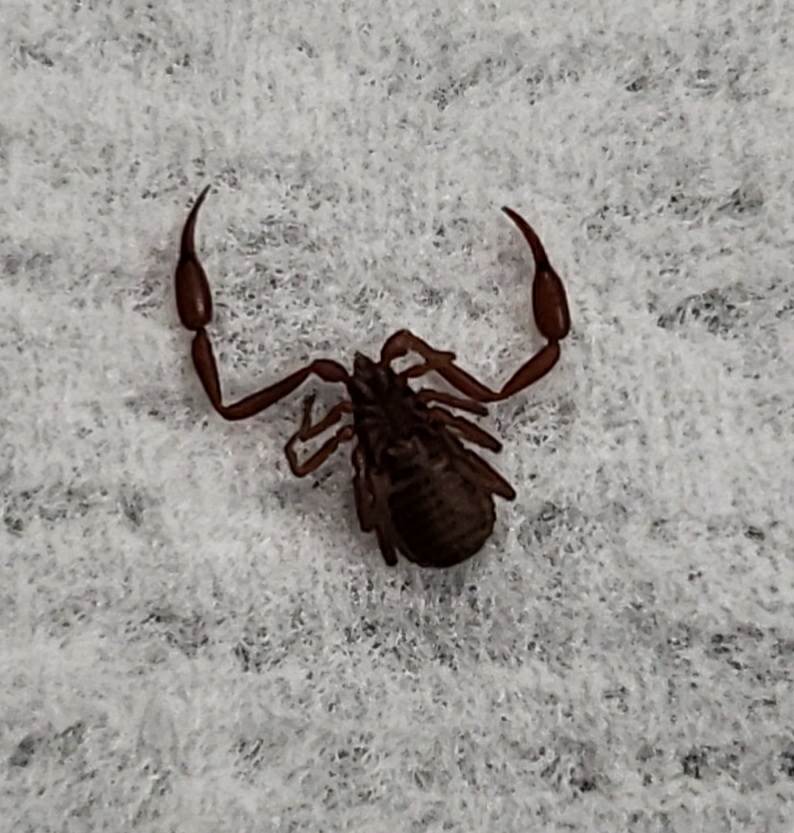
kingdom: Animalia
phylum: Arthropoda
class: Arachnida
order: Pseudoscorpiones
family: Cheliferidae
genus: Chelifer
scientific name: Chelifer cancroides
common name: House false-scorpion
